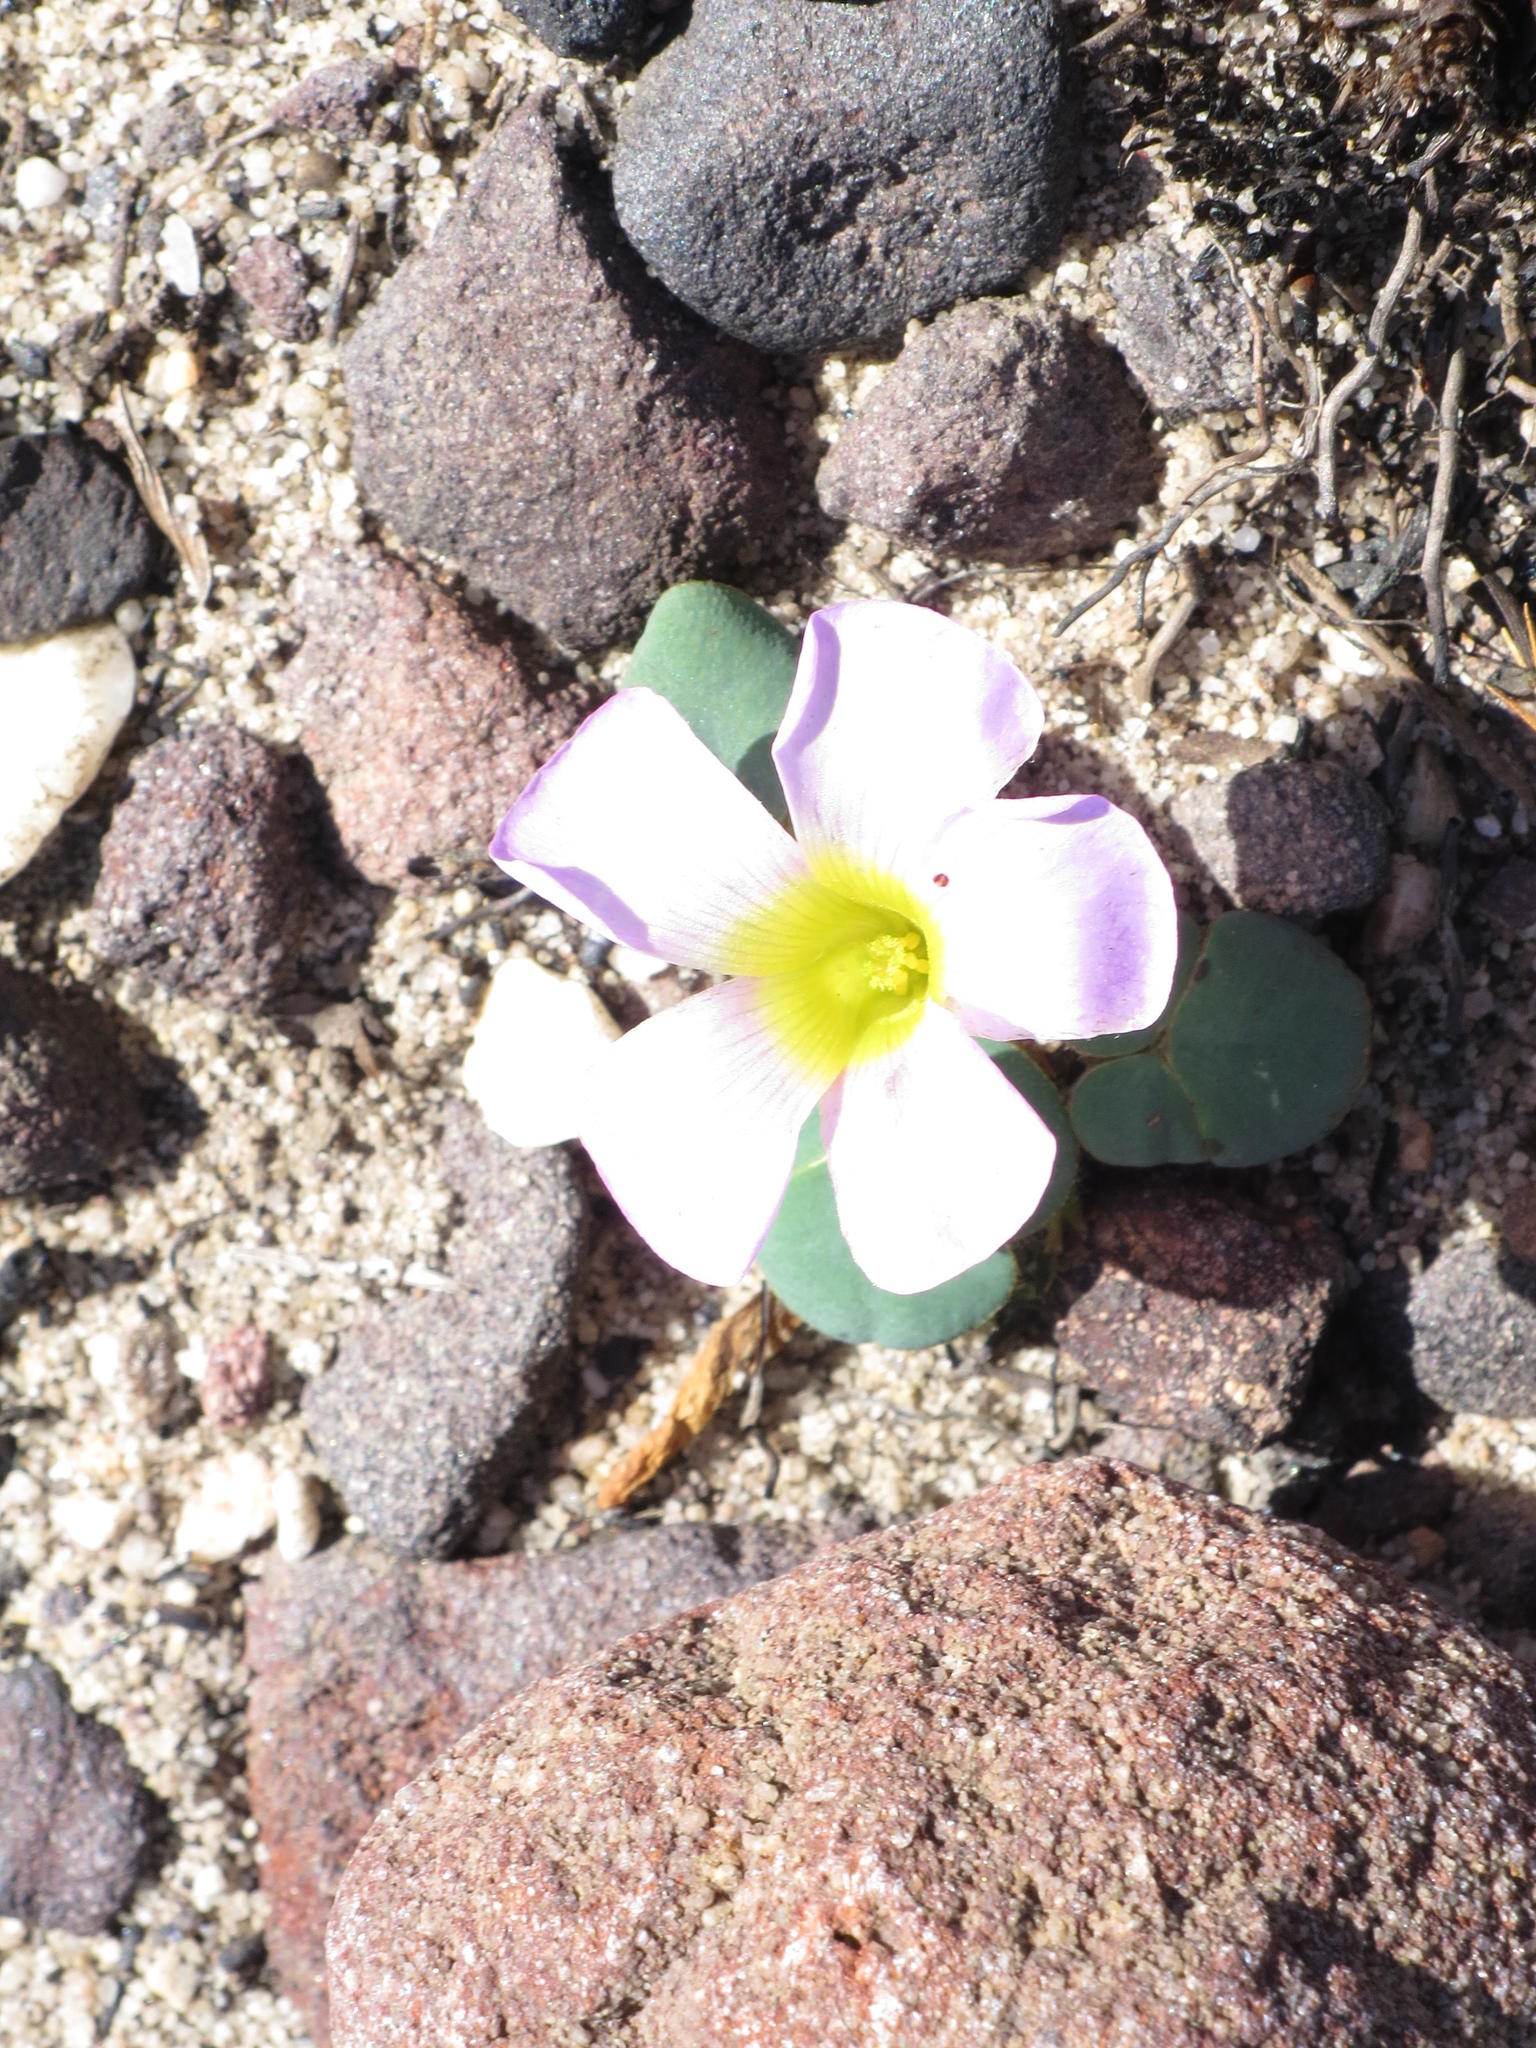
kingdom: Plantae
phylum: Tracheophyta
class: Magnoliopsida
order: Oxalidales
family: Oxalidaceae
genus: Oxalis
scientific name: Oxalis purpurea
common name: Purple woodsorrel
